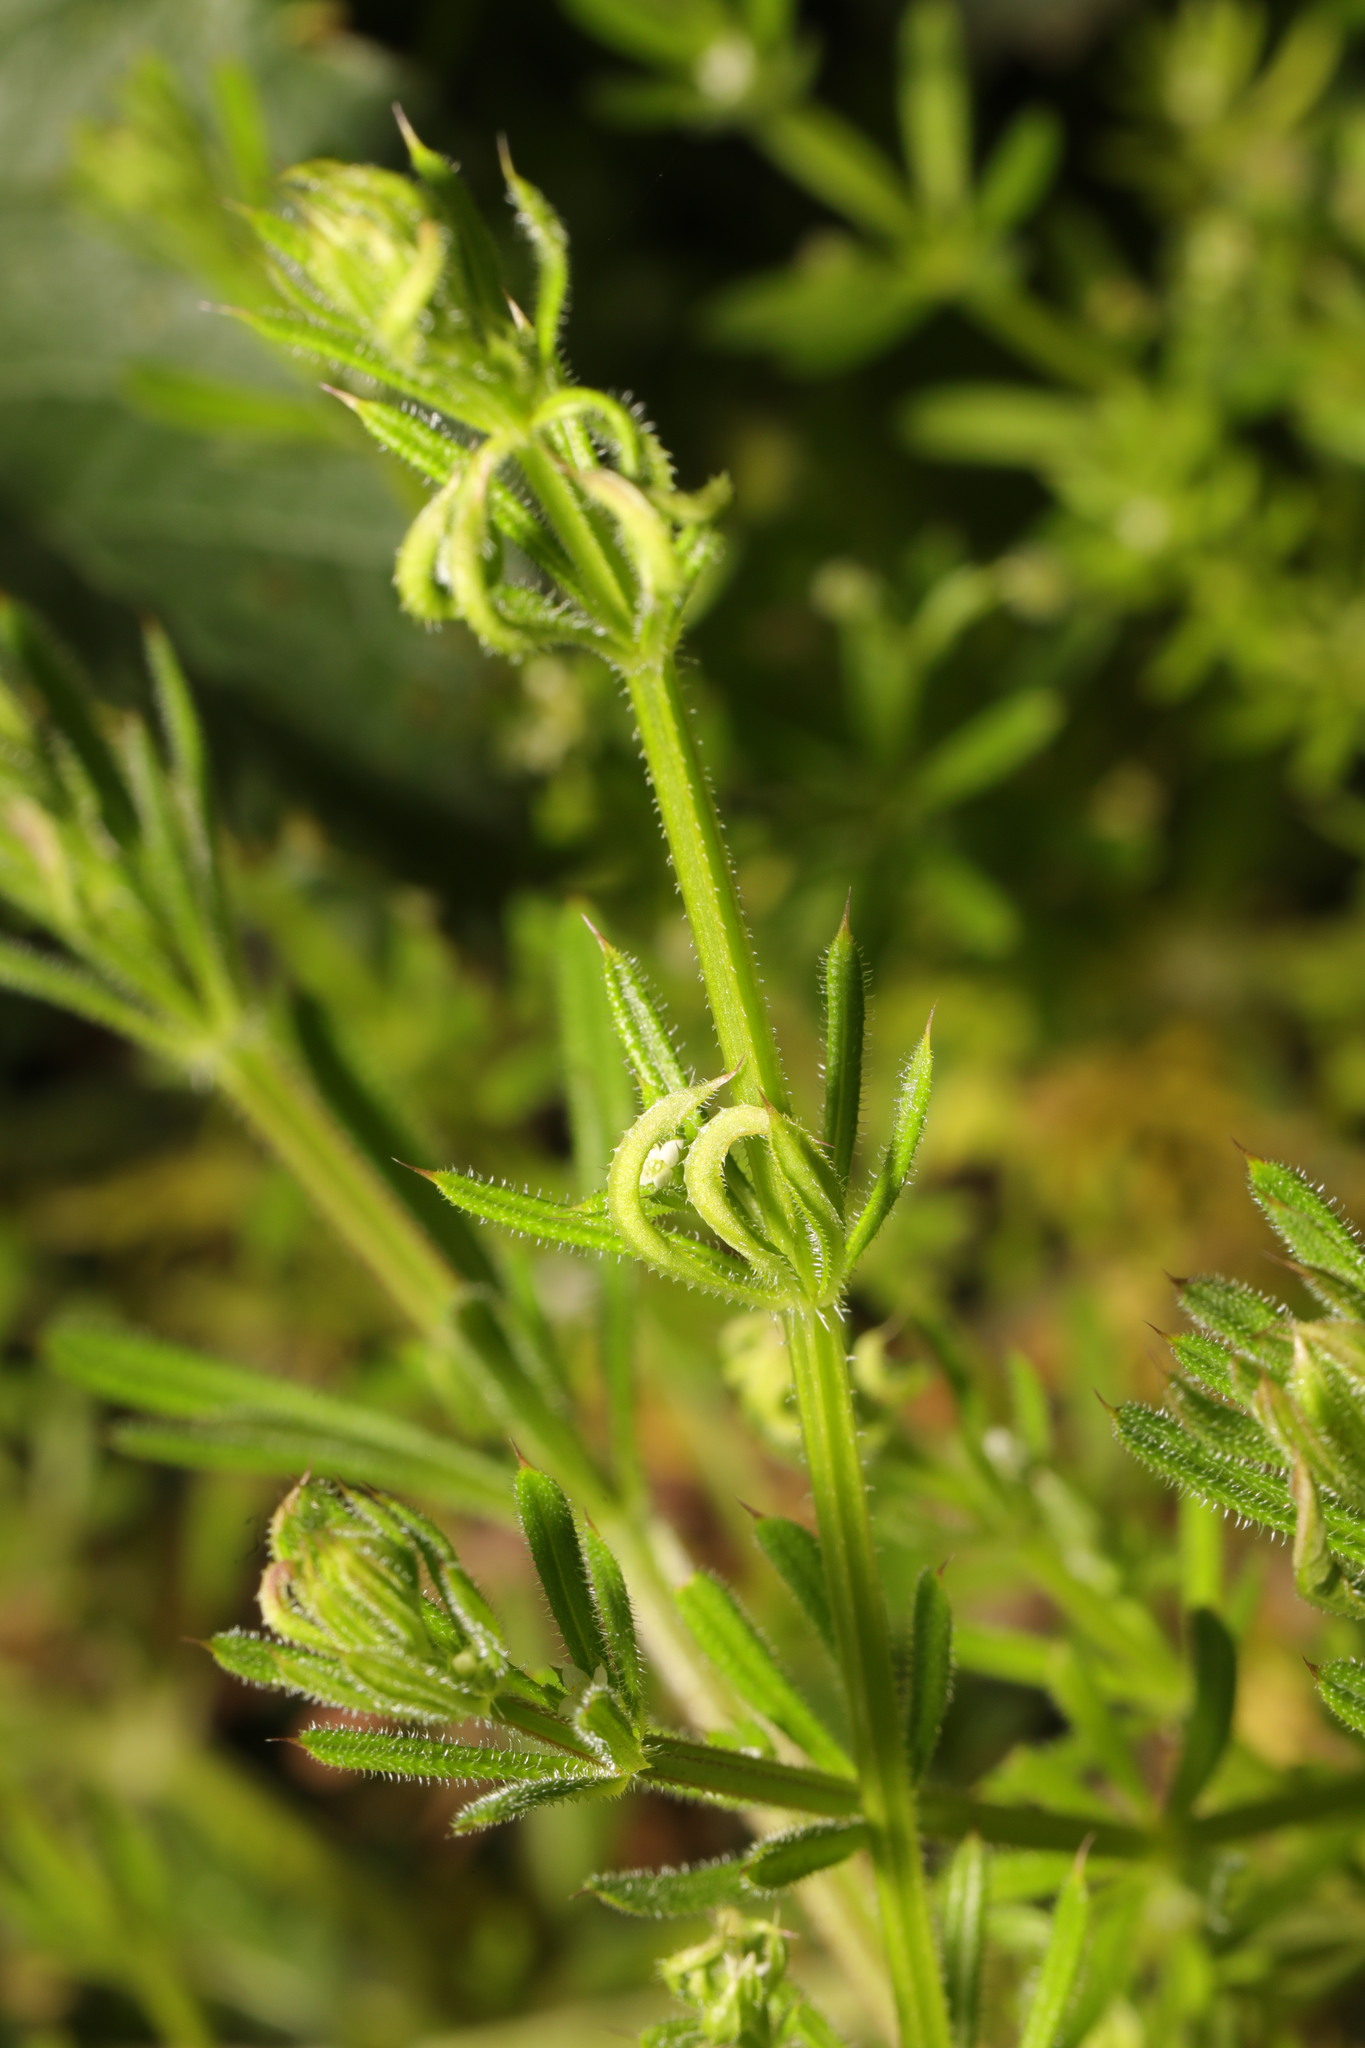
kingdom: Animalia
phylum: Arthropoda
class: Arachnida
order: Trombidiformes
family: Eriophyidae
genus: Cecidophyes
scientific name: Cecidophyes rouhollahi
